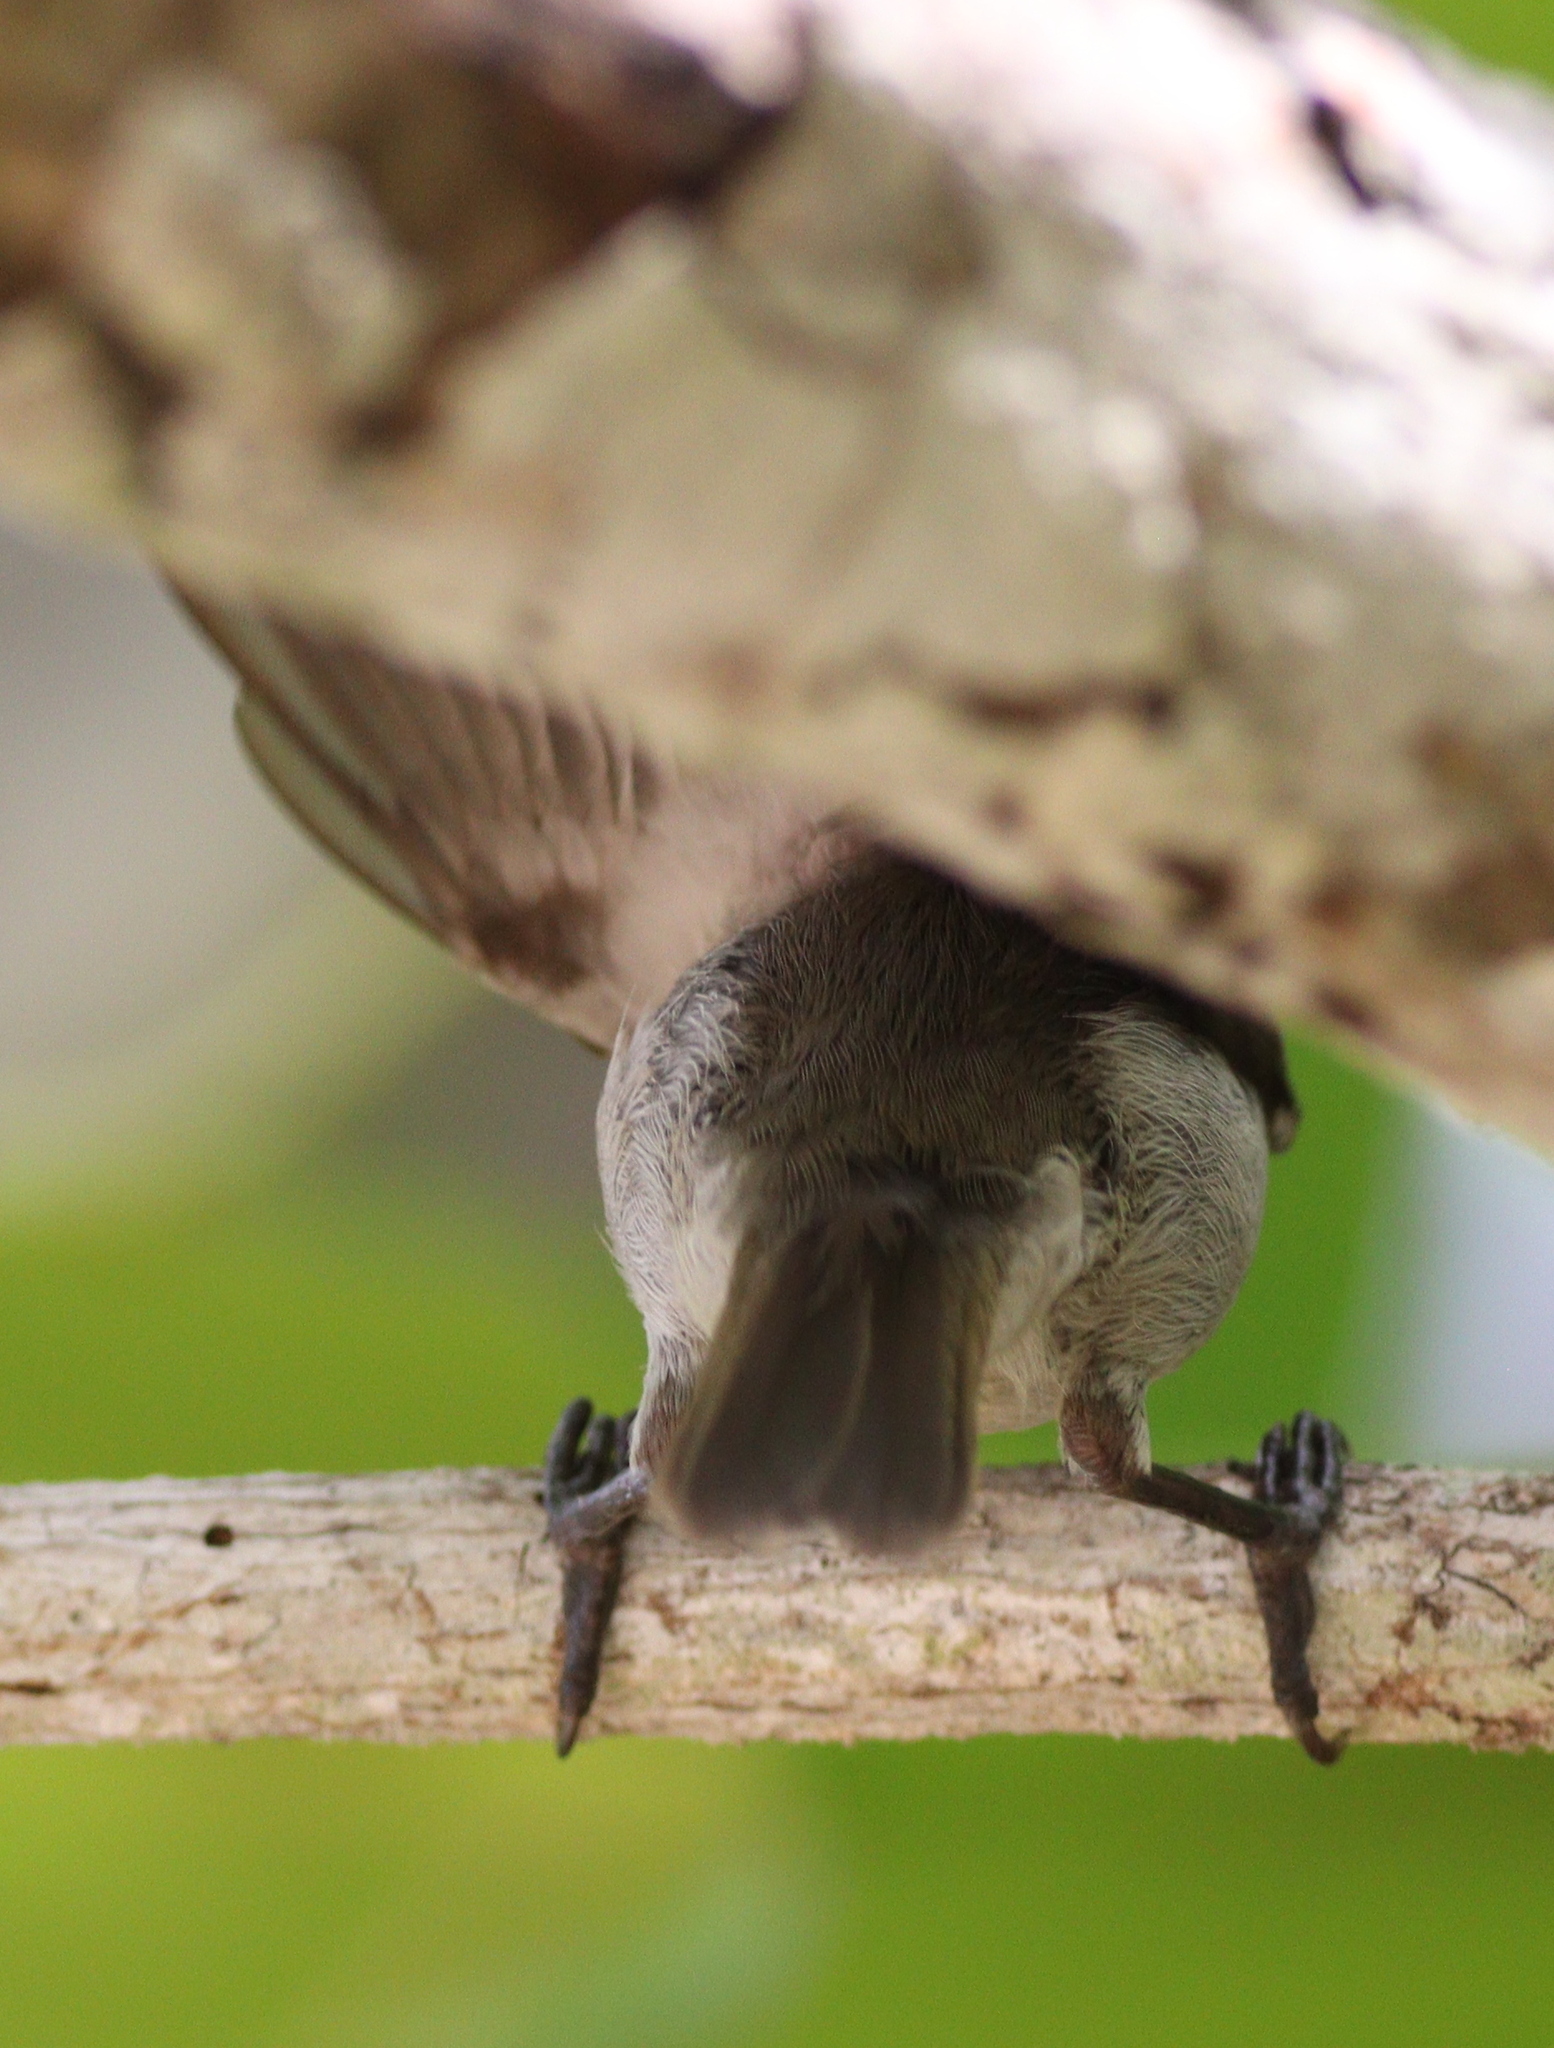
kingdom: Animalia
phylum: Chordata
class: Aves
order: Passeriformes
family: Nectariniidae
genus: Anthreptes
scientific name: Anthreptes gabonicus
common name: Mangrove sunbird
